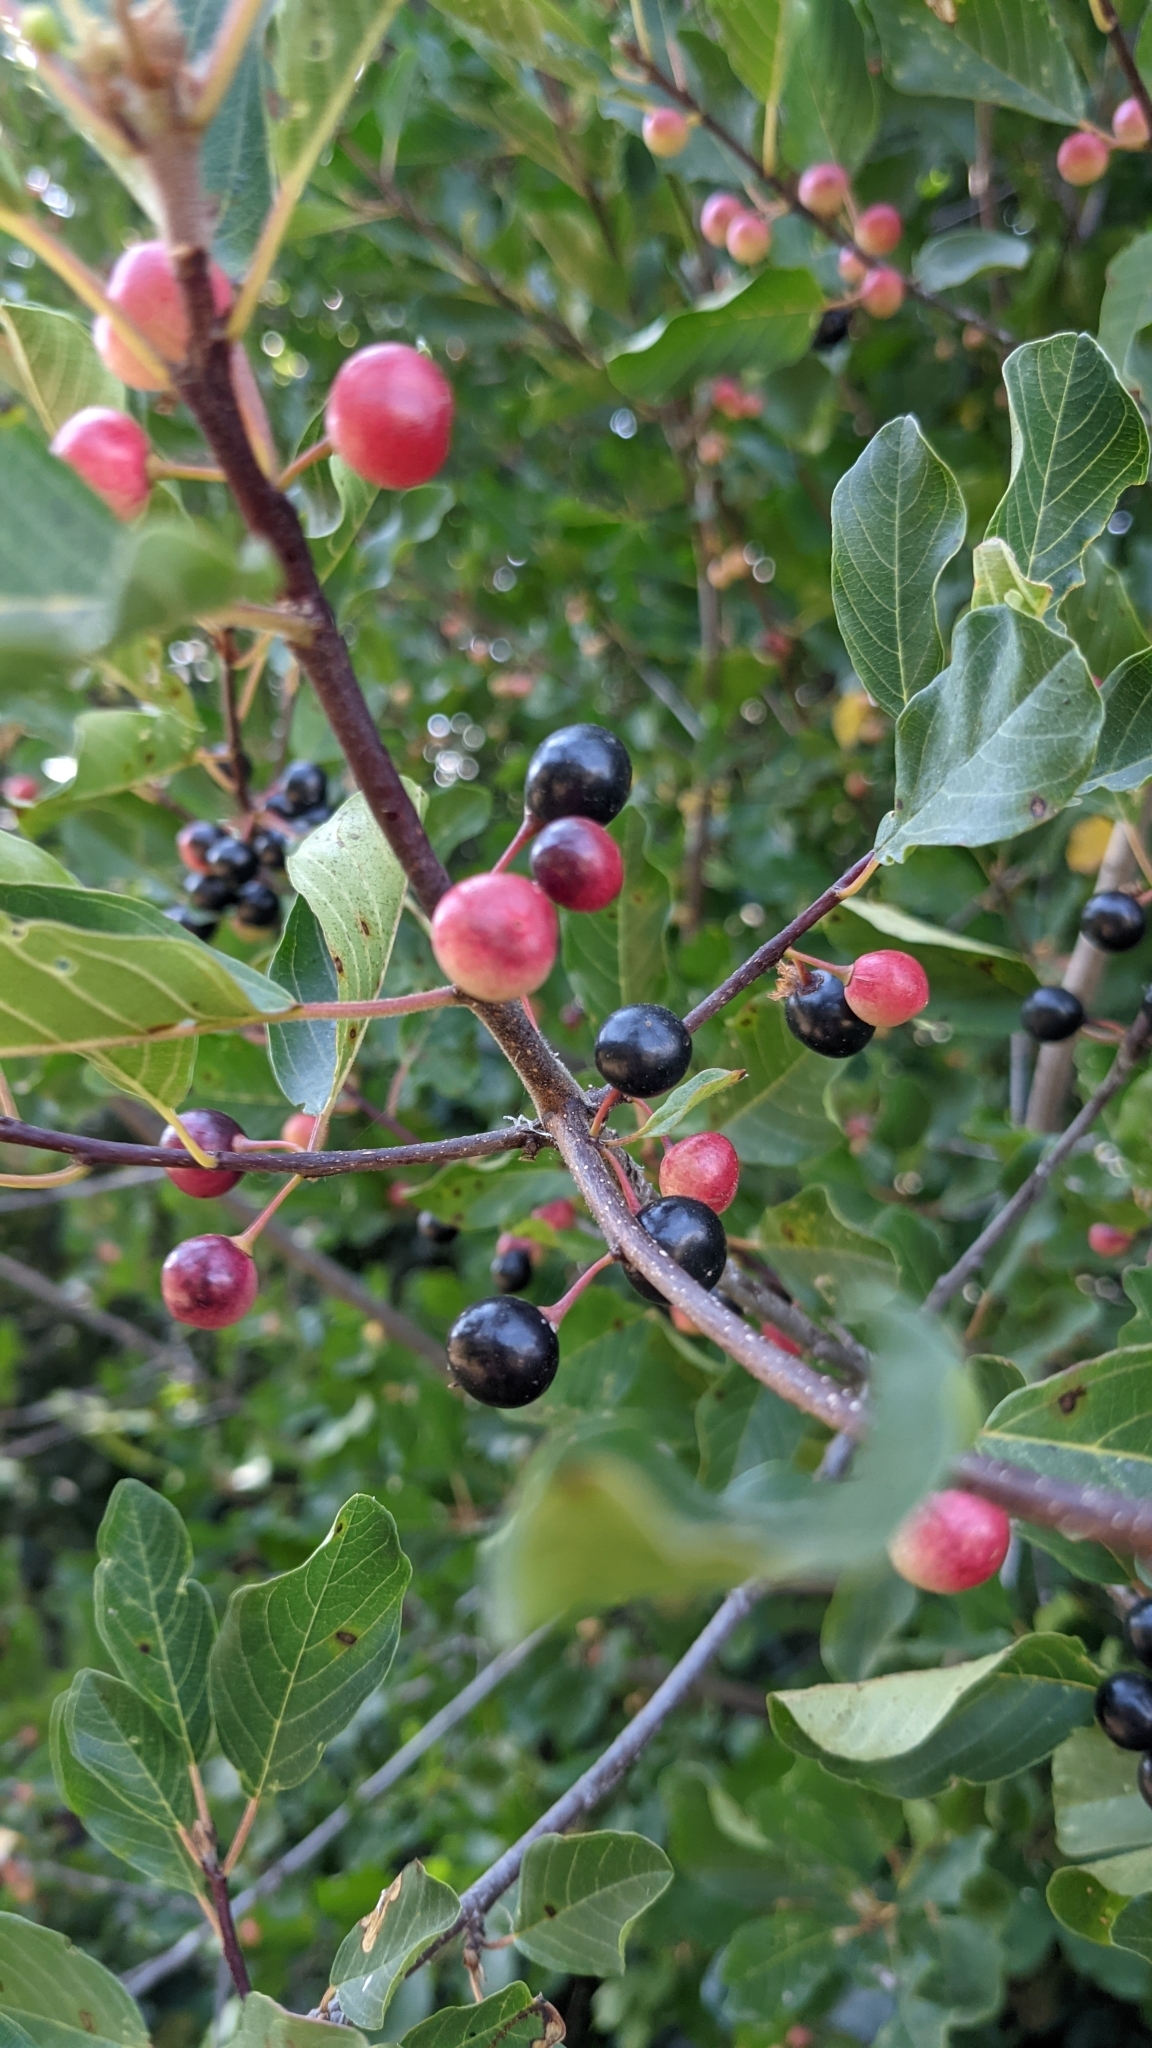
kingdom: Plantae
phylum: Tracheophyta
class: Magnoliopsida
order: Rosales
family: Rhamnaceae
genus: Frangula
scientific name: Frangula alnus
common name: Alder buckthorn
